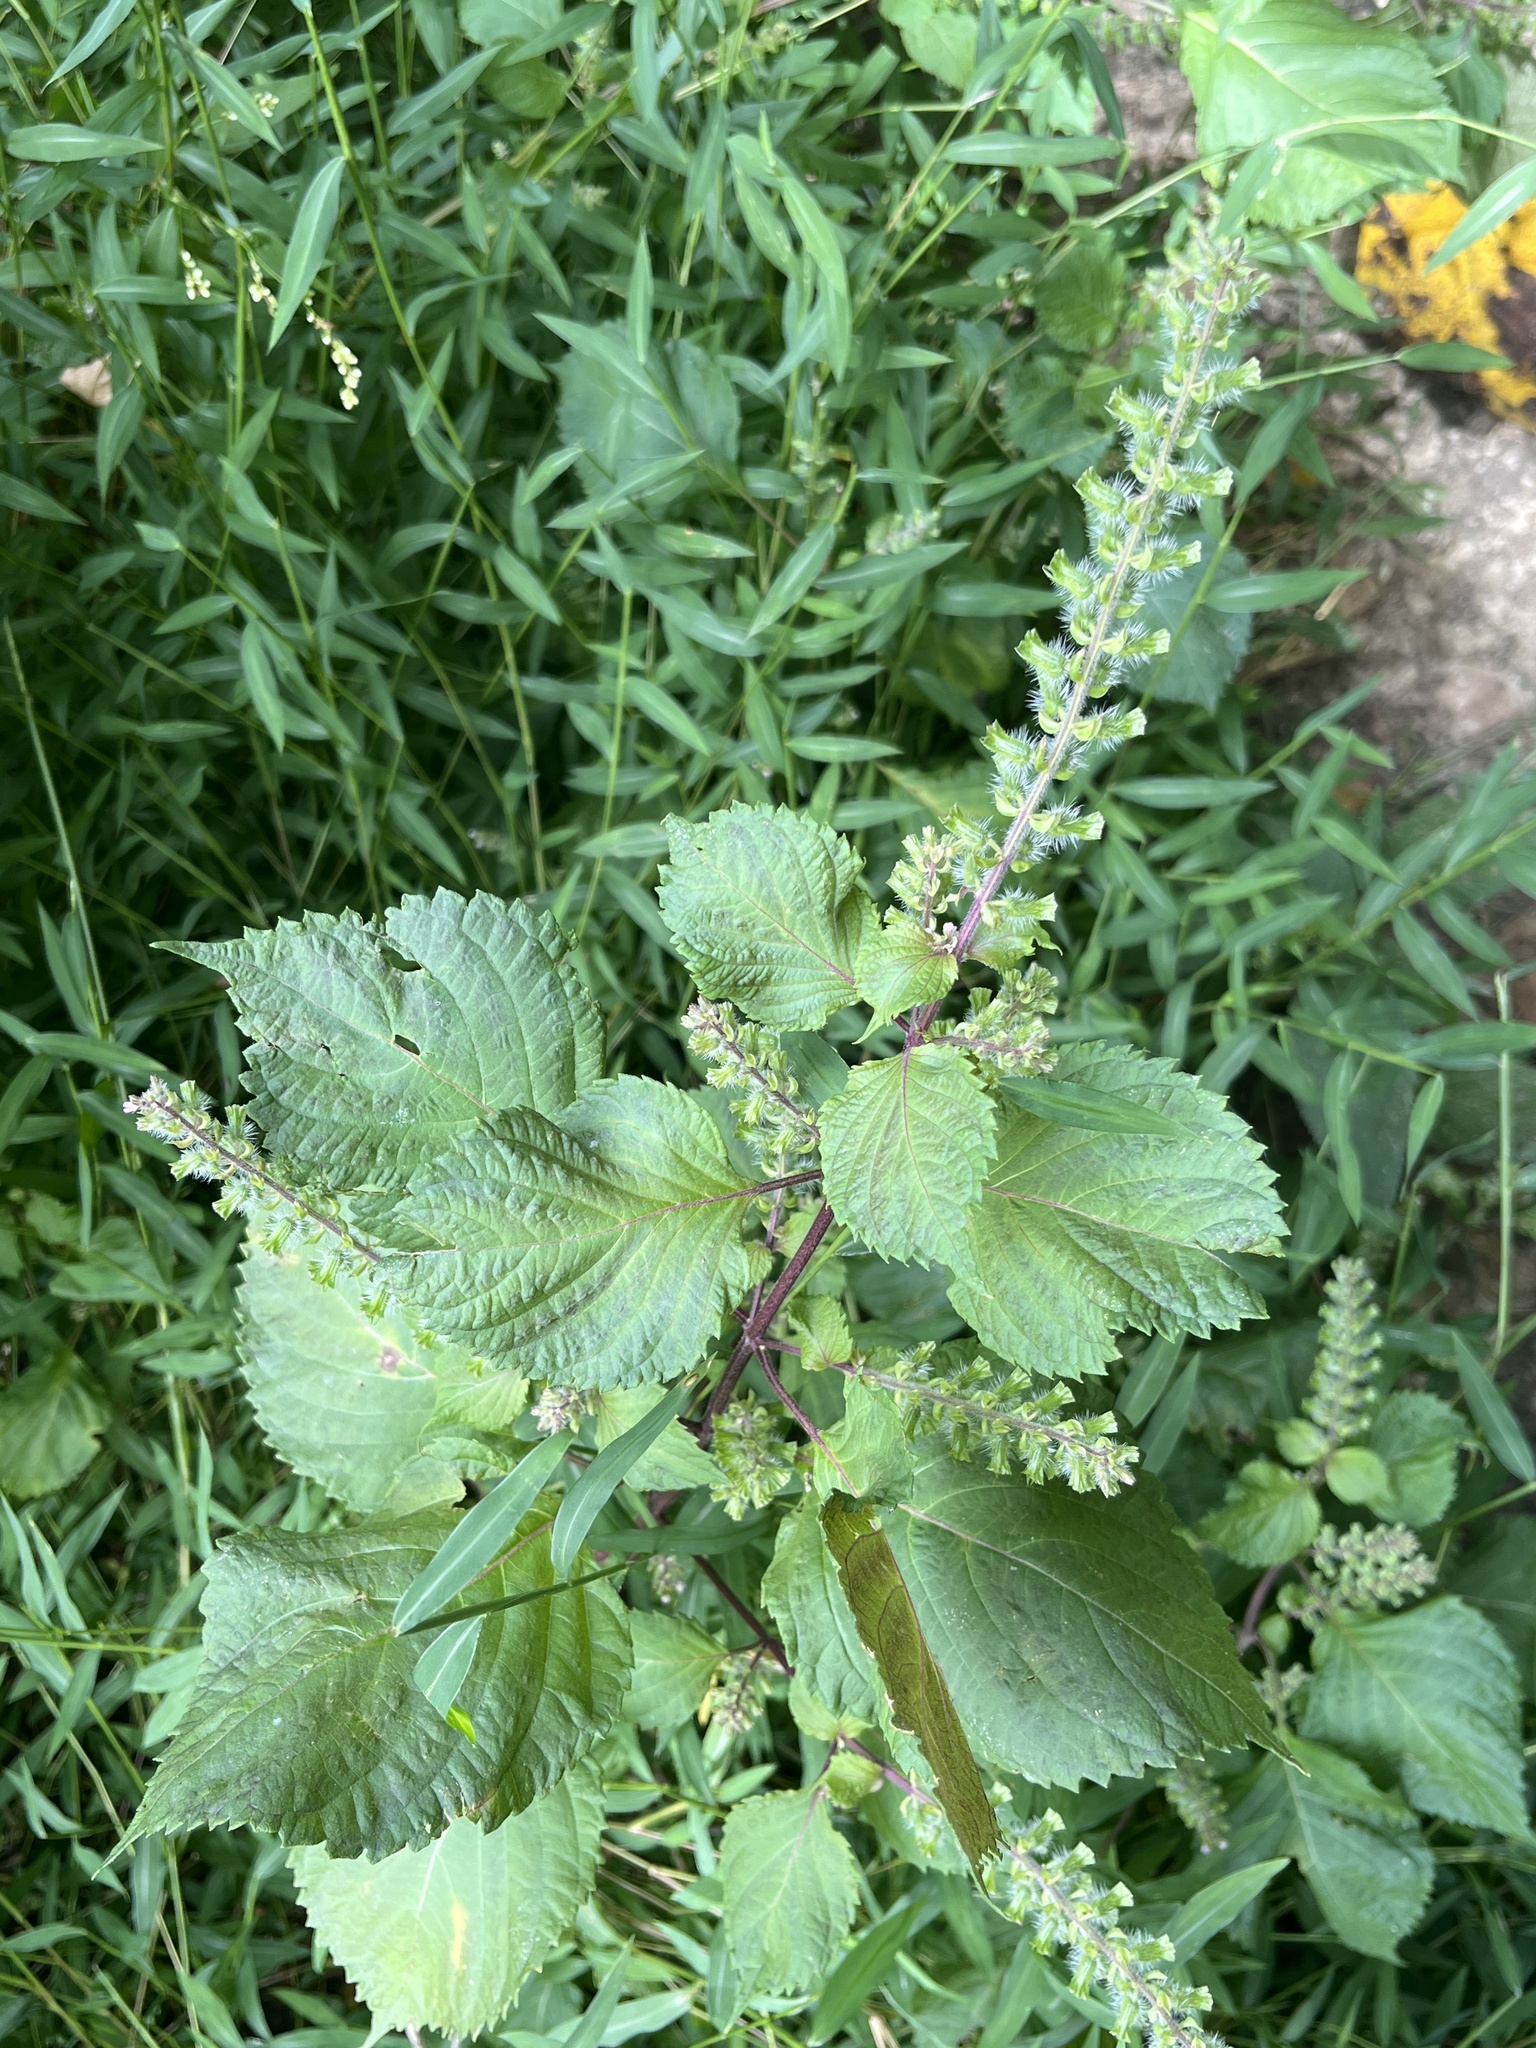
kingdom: Plantae
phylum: Tracheophyta
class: Magnoliopsida
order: Lamiales
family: Lamiaceae
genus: Perilla
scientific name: Perilla frutescens
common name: Perilla
